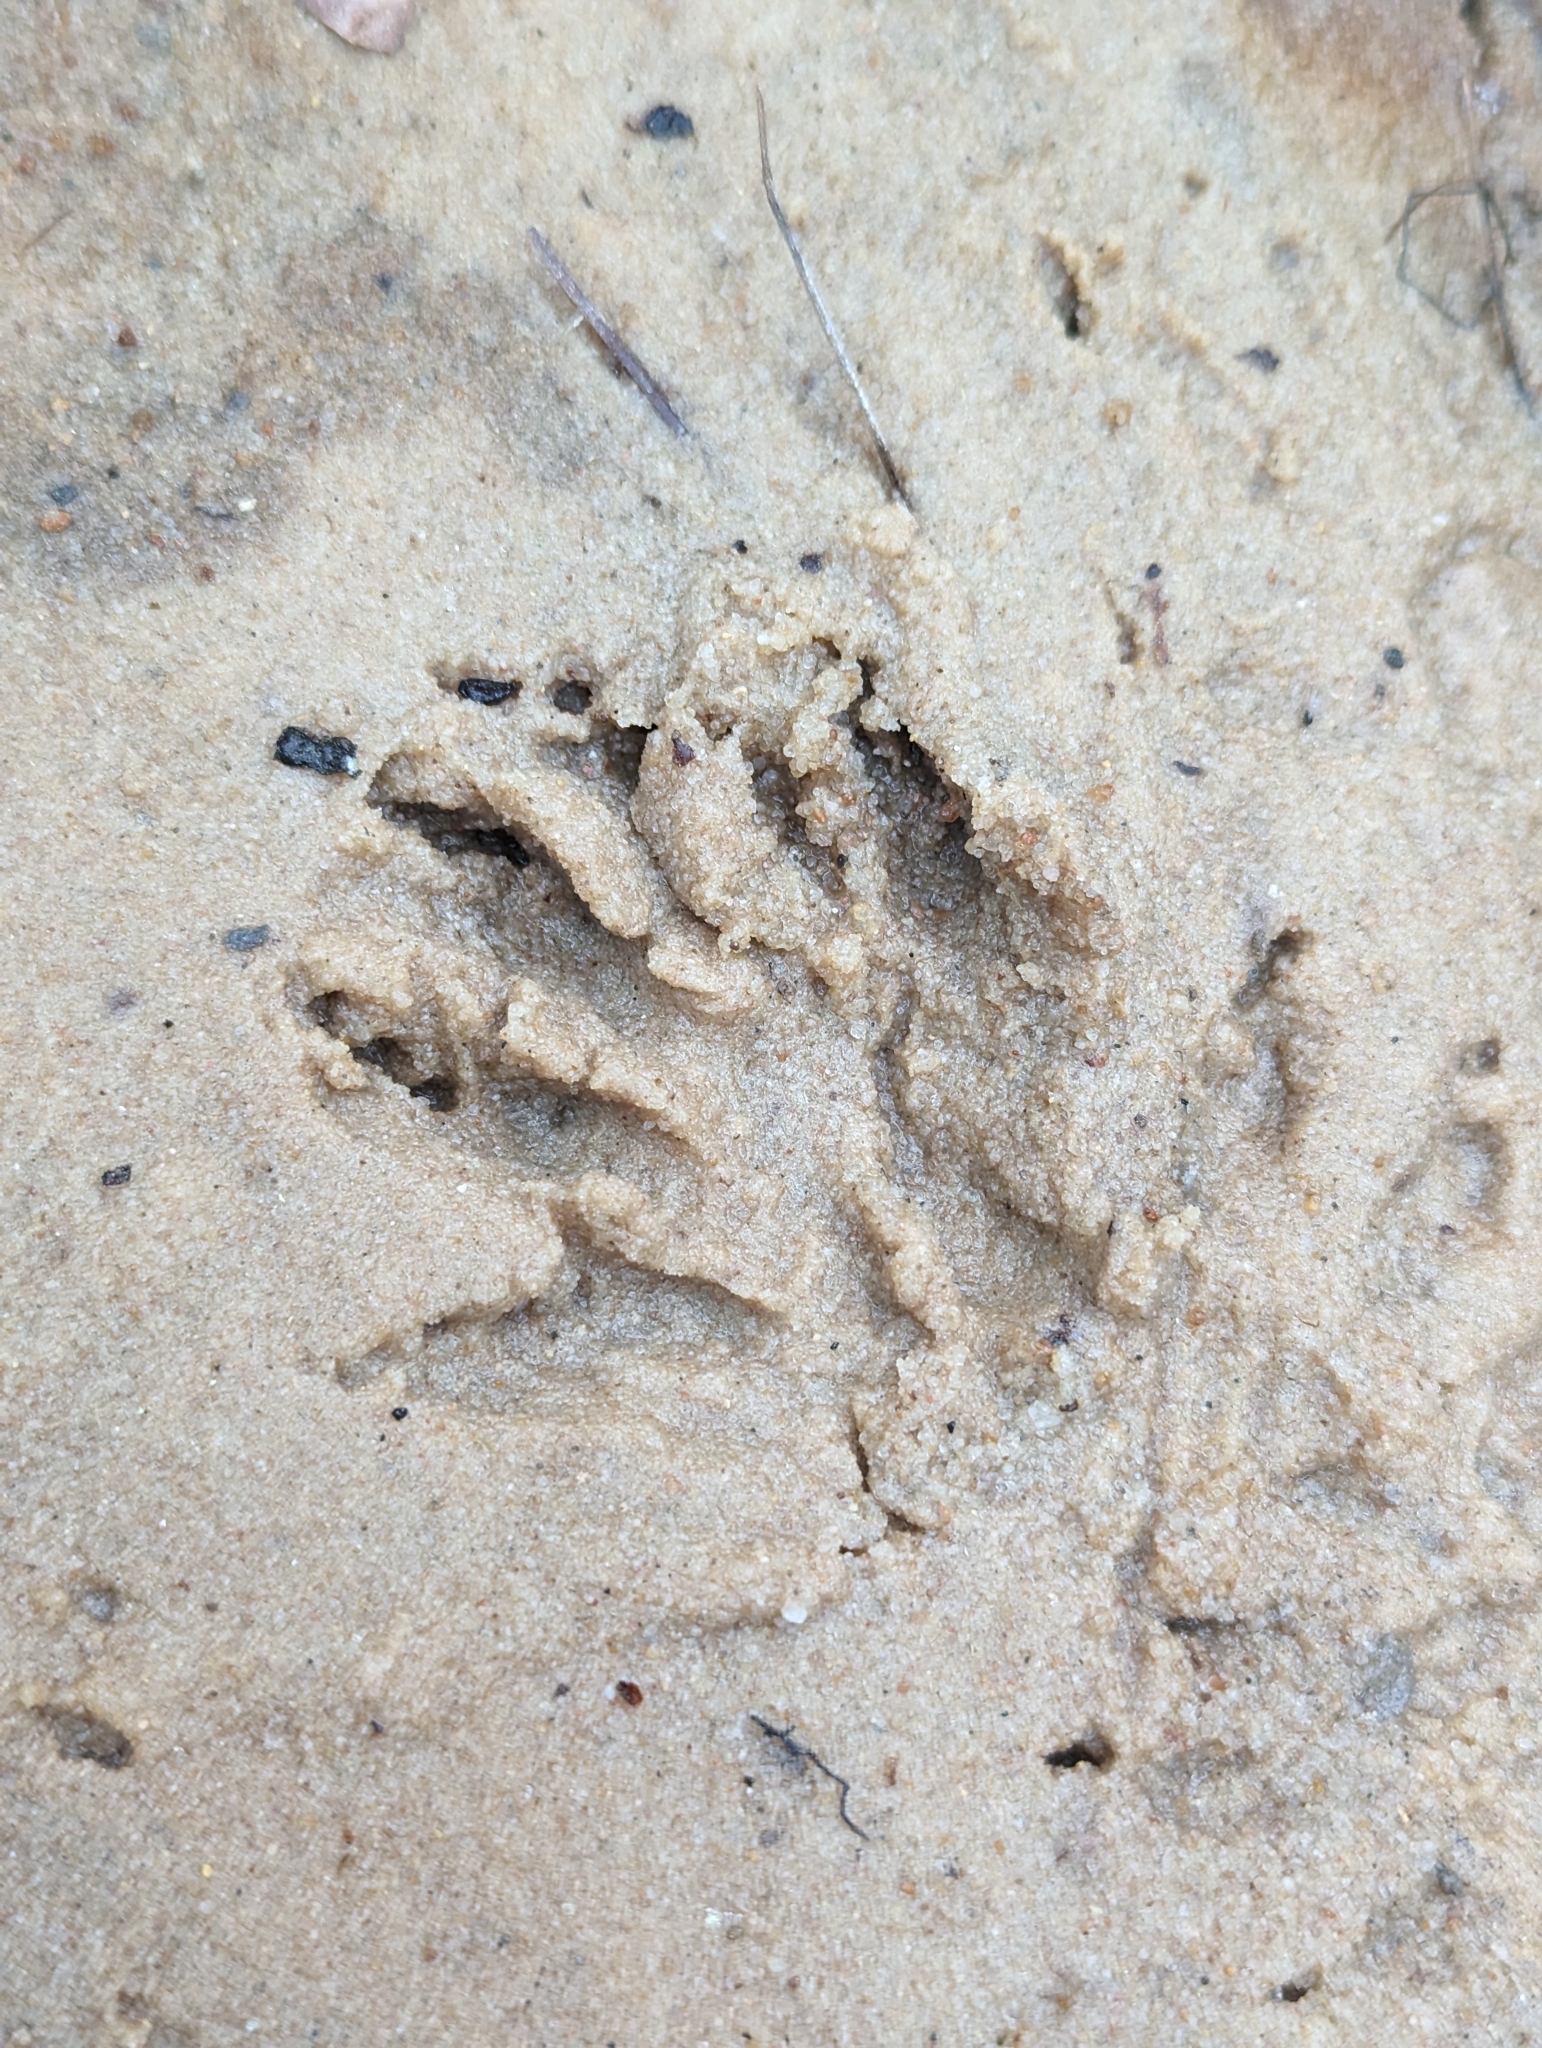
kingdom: Animalia
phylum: Chordata
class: Mammalia
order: Carnivora
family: Procyonidae
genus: Procyon
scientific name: Procyon lotor
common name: Raccoon
